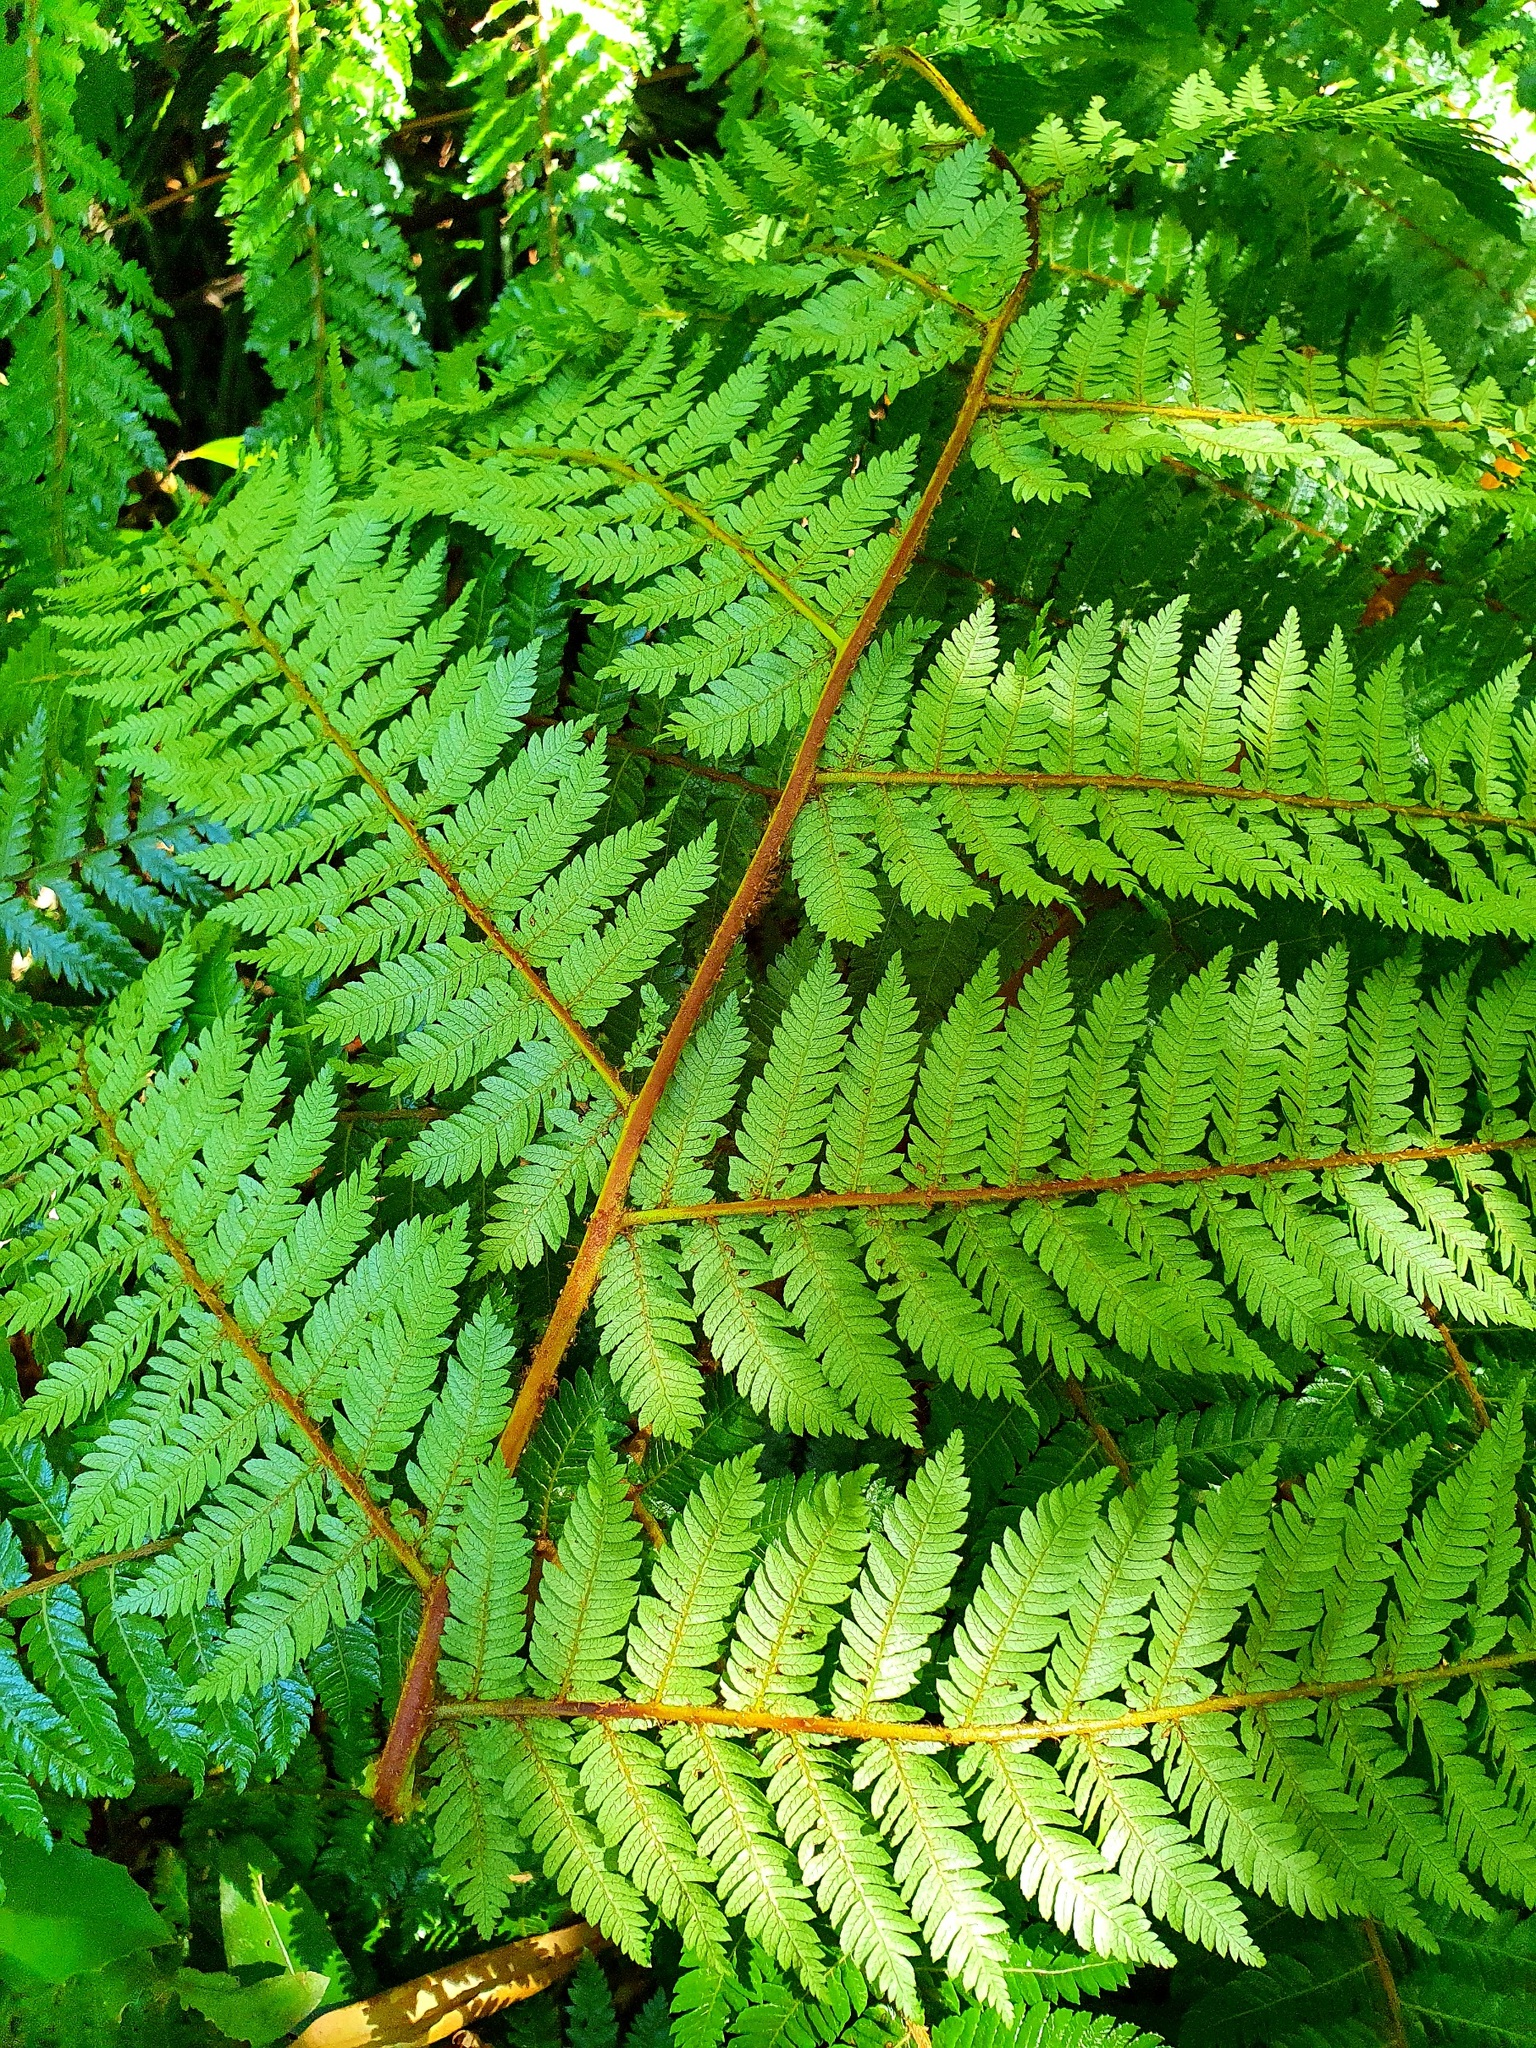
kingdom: Plantae
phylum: Tracheophyta
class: Polypodiopsida
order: Cyatheales
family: Cyatheaceae
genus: Alsophila
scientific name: Alsophila smithii
